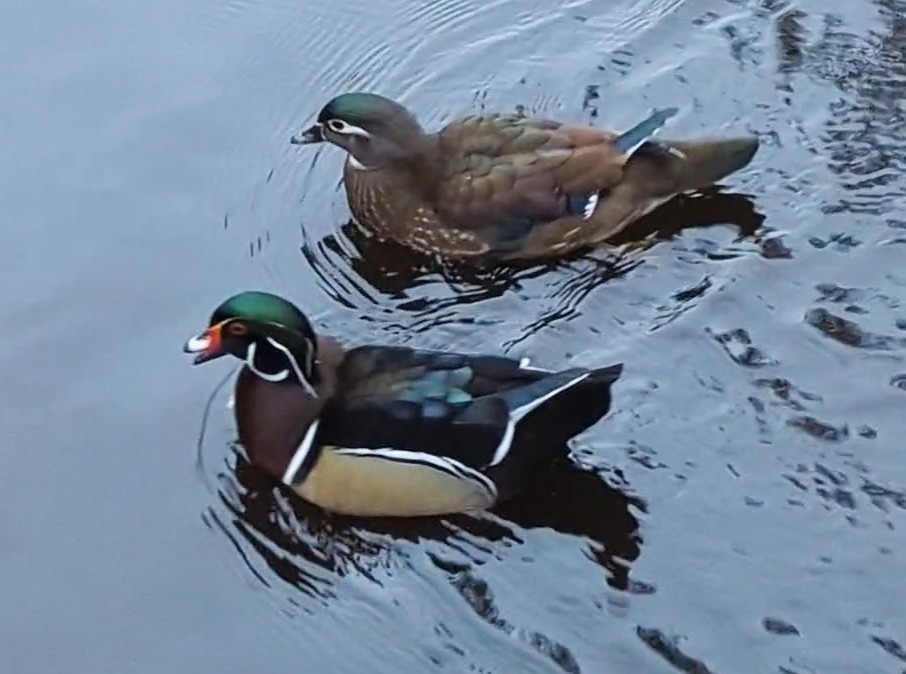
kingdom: Animalia
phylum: Chordata
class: Aves
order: Anseriformes
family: Anatidae
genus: Aix
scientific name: Aix sponsa
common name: Wood duck
